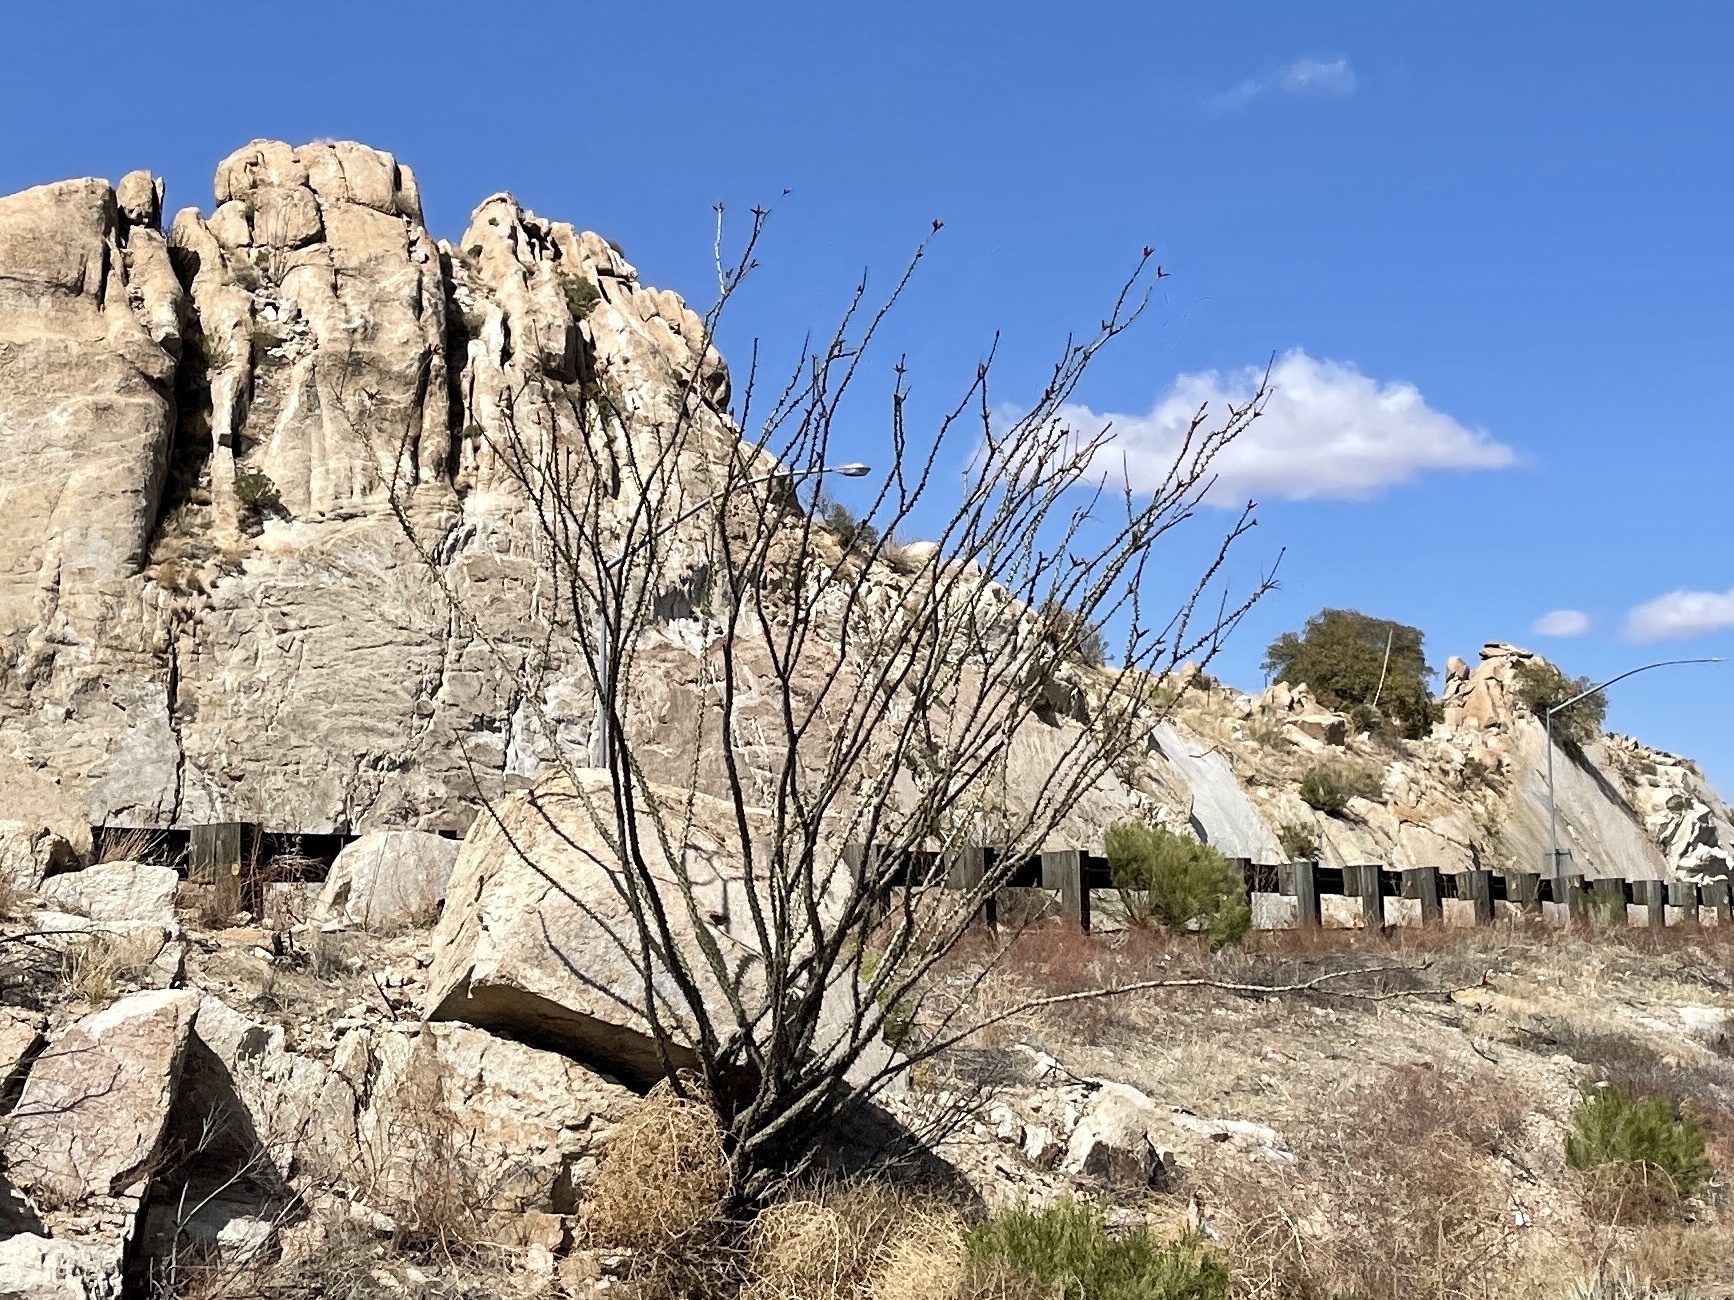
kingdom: Plantae
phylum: Tracheophyta
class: Magnoliopsida
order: Ericales
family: Fouquieriaceae
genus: Fouquieria
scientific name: Fouquieria splendens
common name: Vine-cactus
